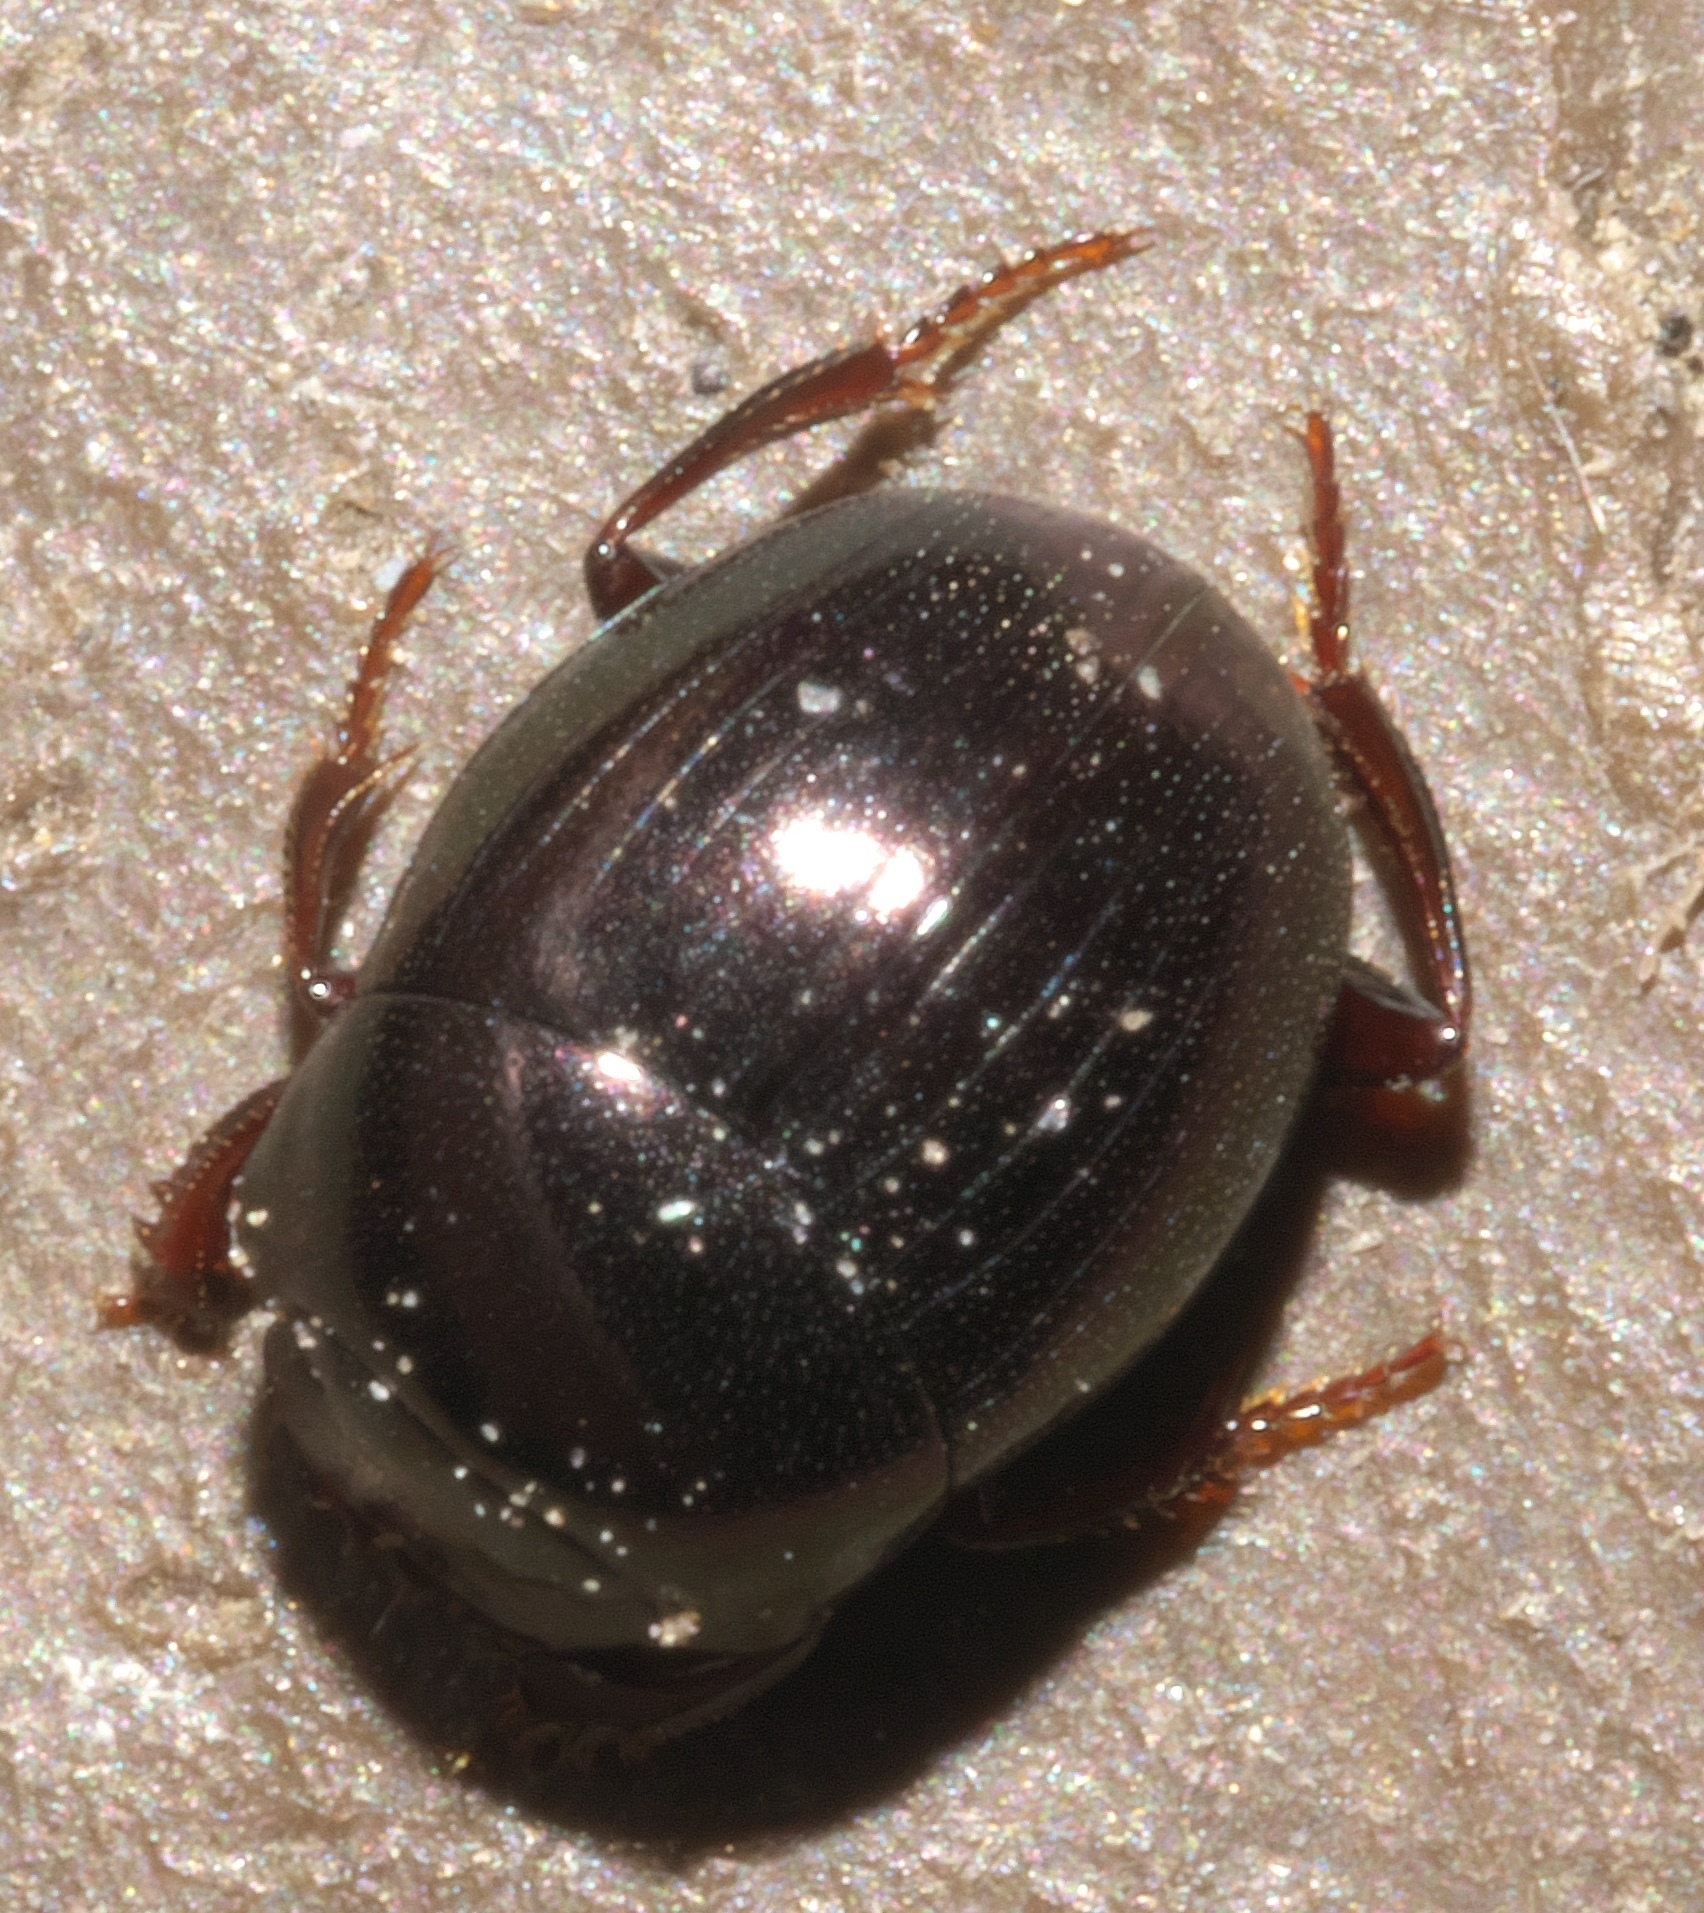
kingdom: Animalia
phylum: Arthropoda
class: Insecta
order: Coleoptera
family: Scarabaeidae
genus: Pseudocanthon
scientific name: Pseudocanthon perplexus
